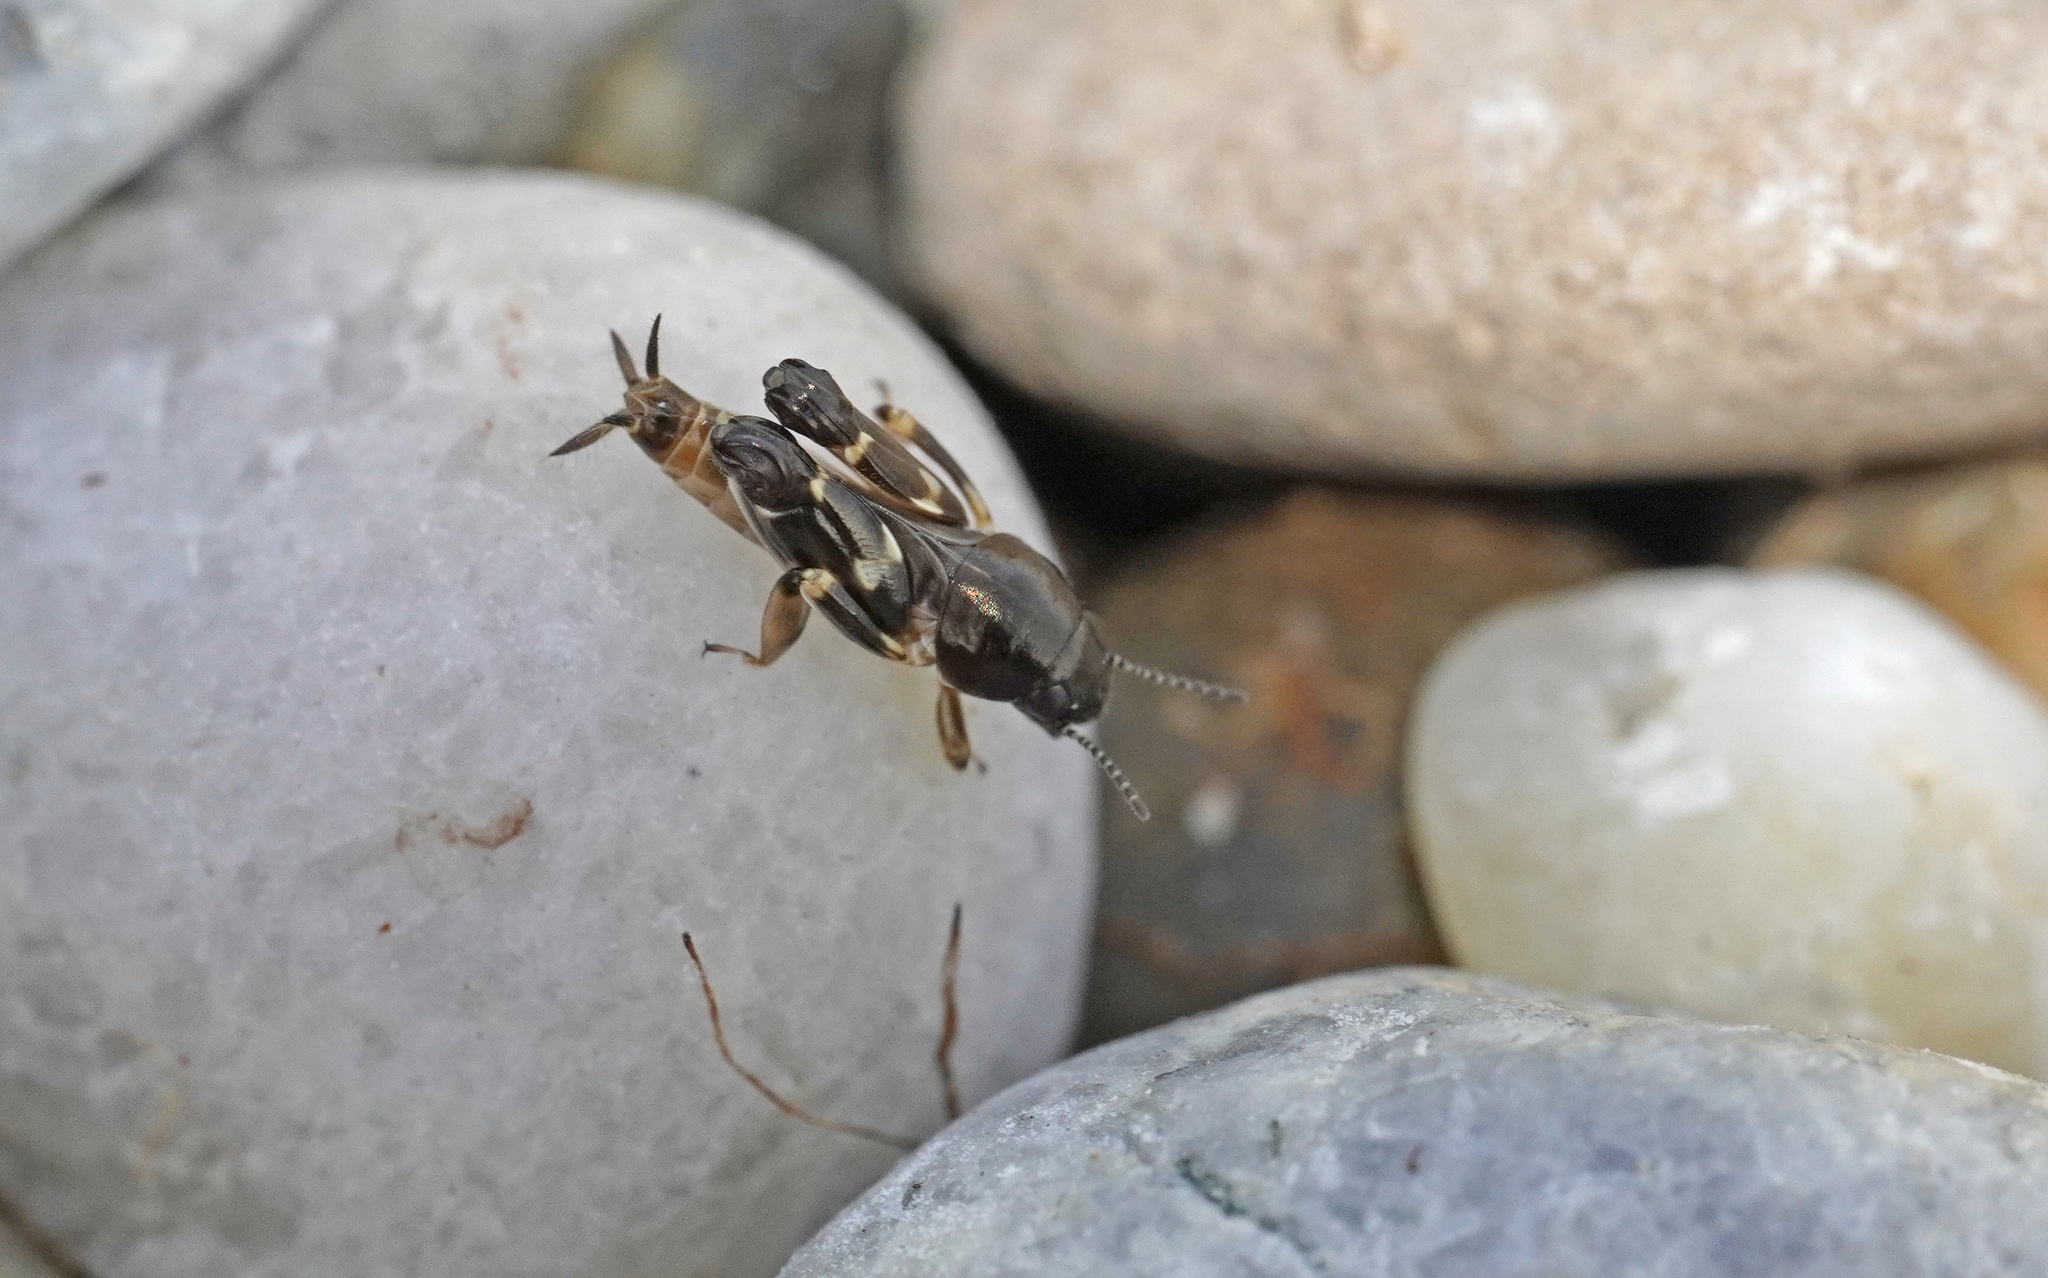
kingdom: Animalia
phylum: Arthropoda
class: Insecta
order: Orthoptera
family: Tridactylidae
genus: Xya
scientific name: Xya pfaendleri
